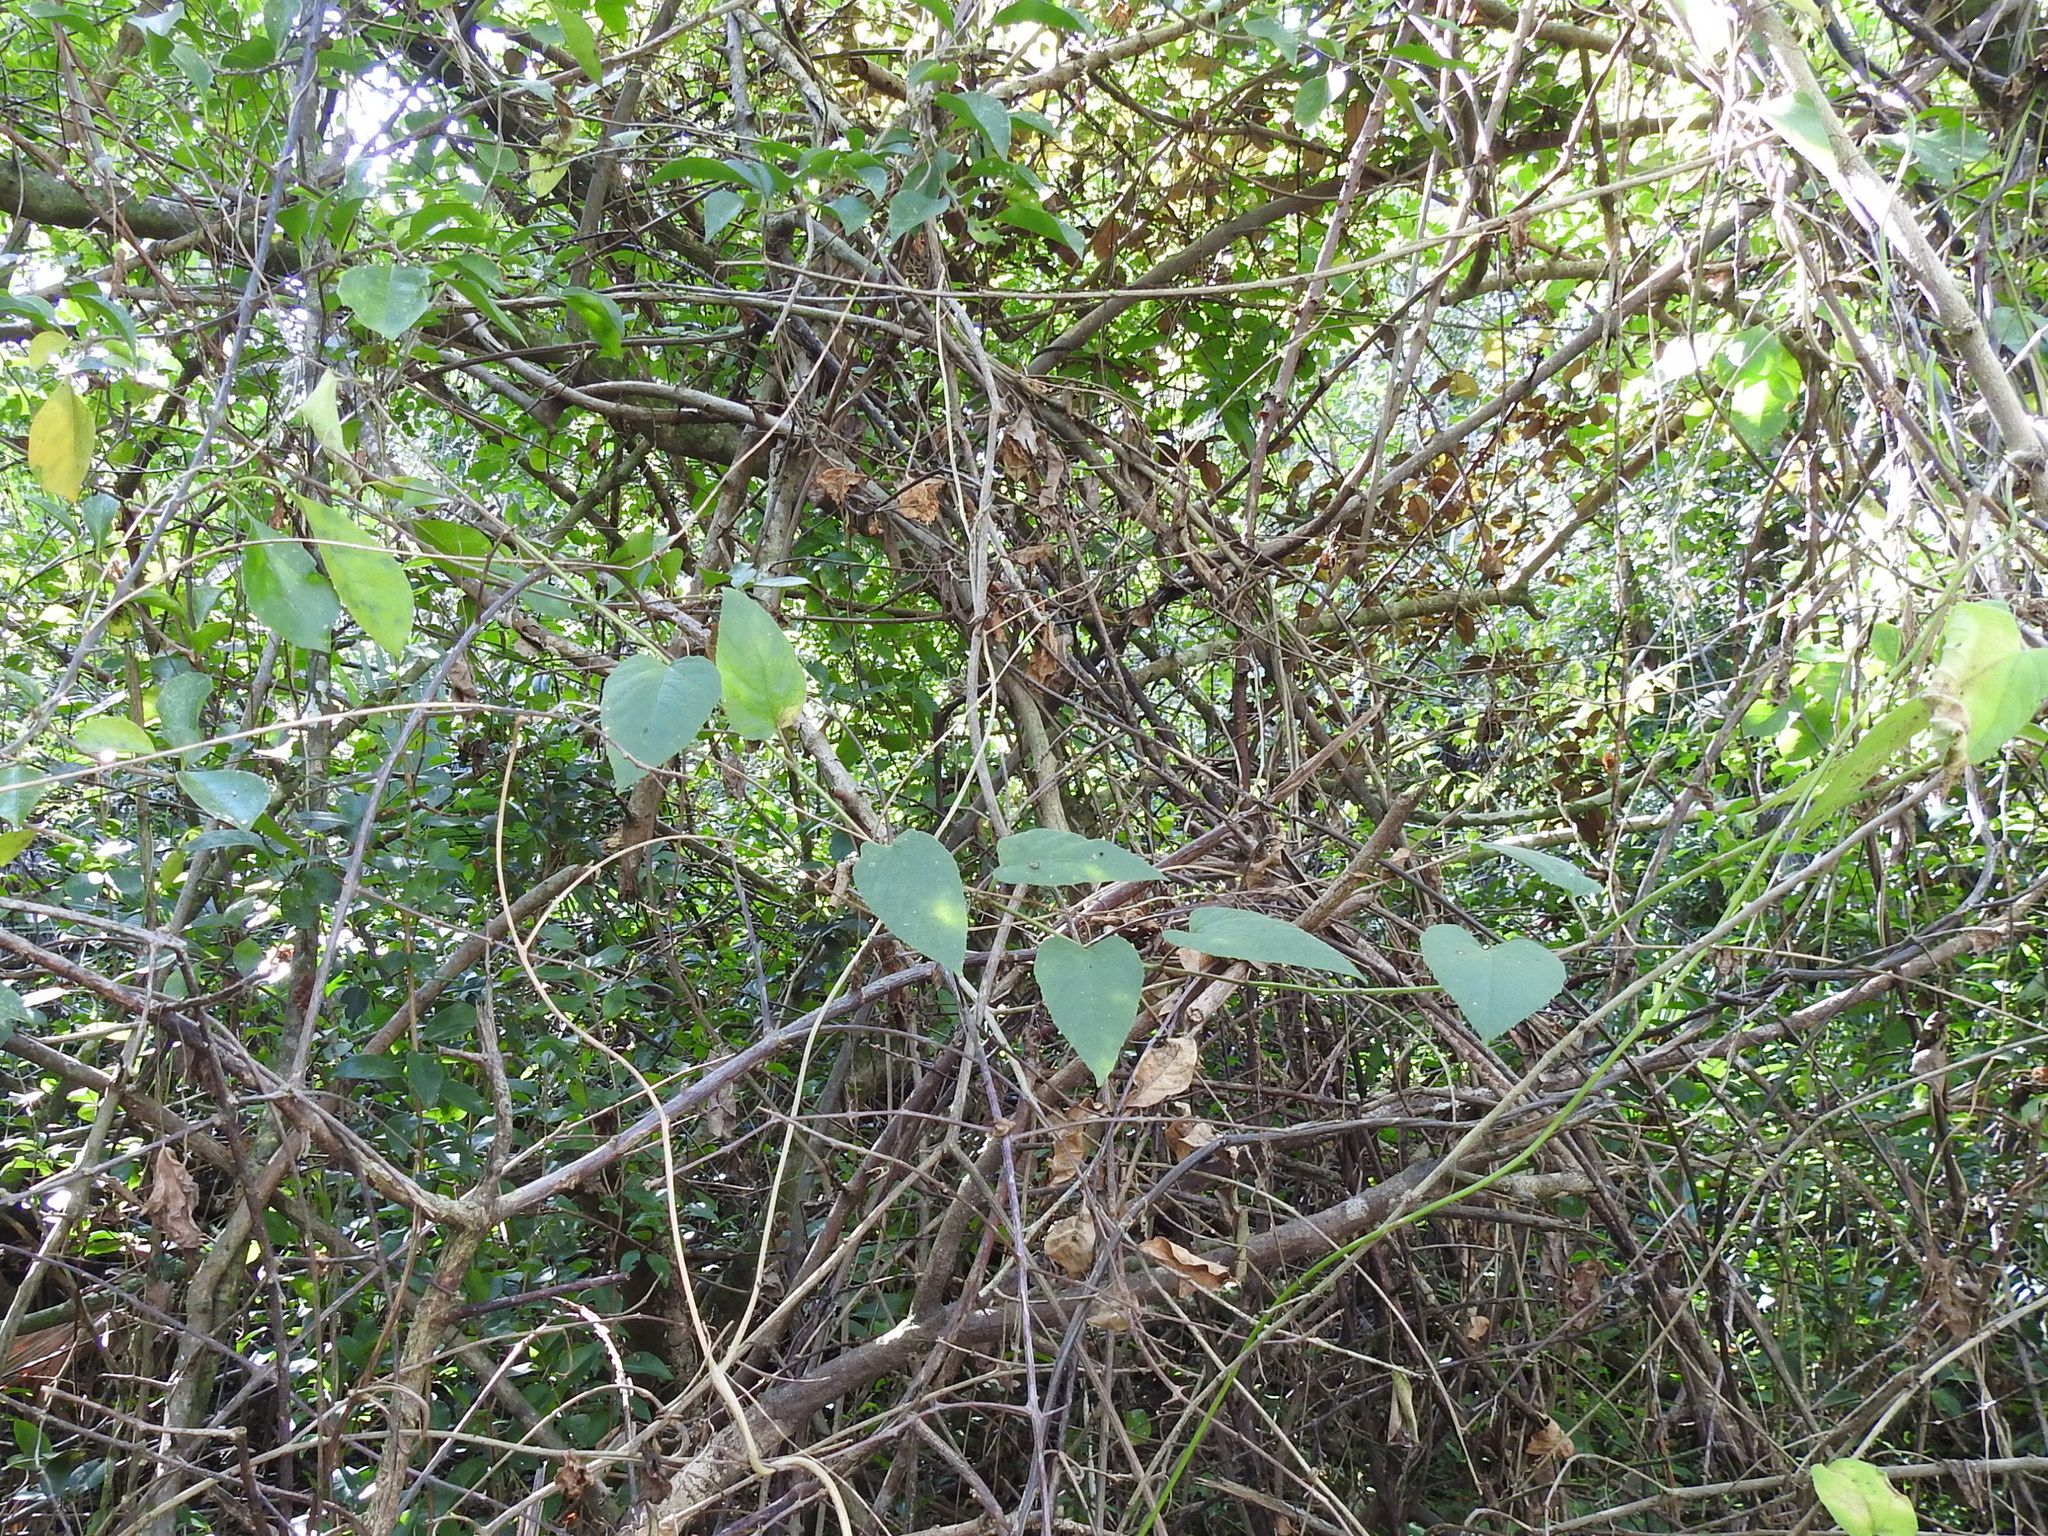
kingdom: Plantae
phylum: Tracheophyta
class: Magnoliopsida
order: Vitales
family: Vitaceae
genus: Cissus
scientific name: Cissus verticillata
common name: Princess vine
